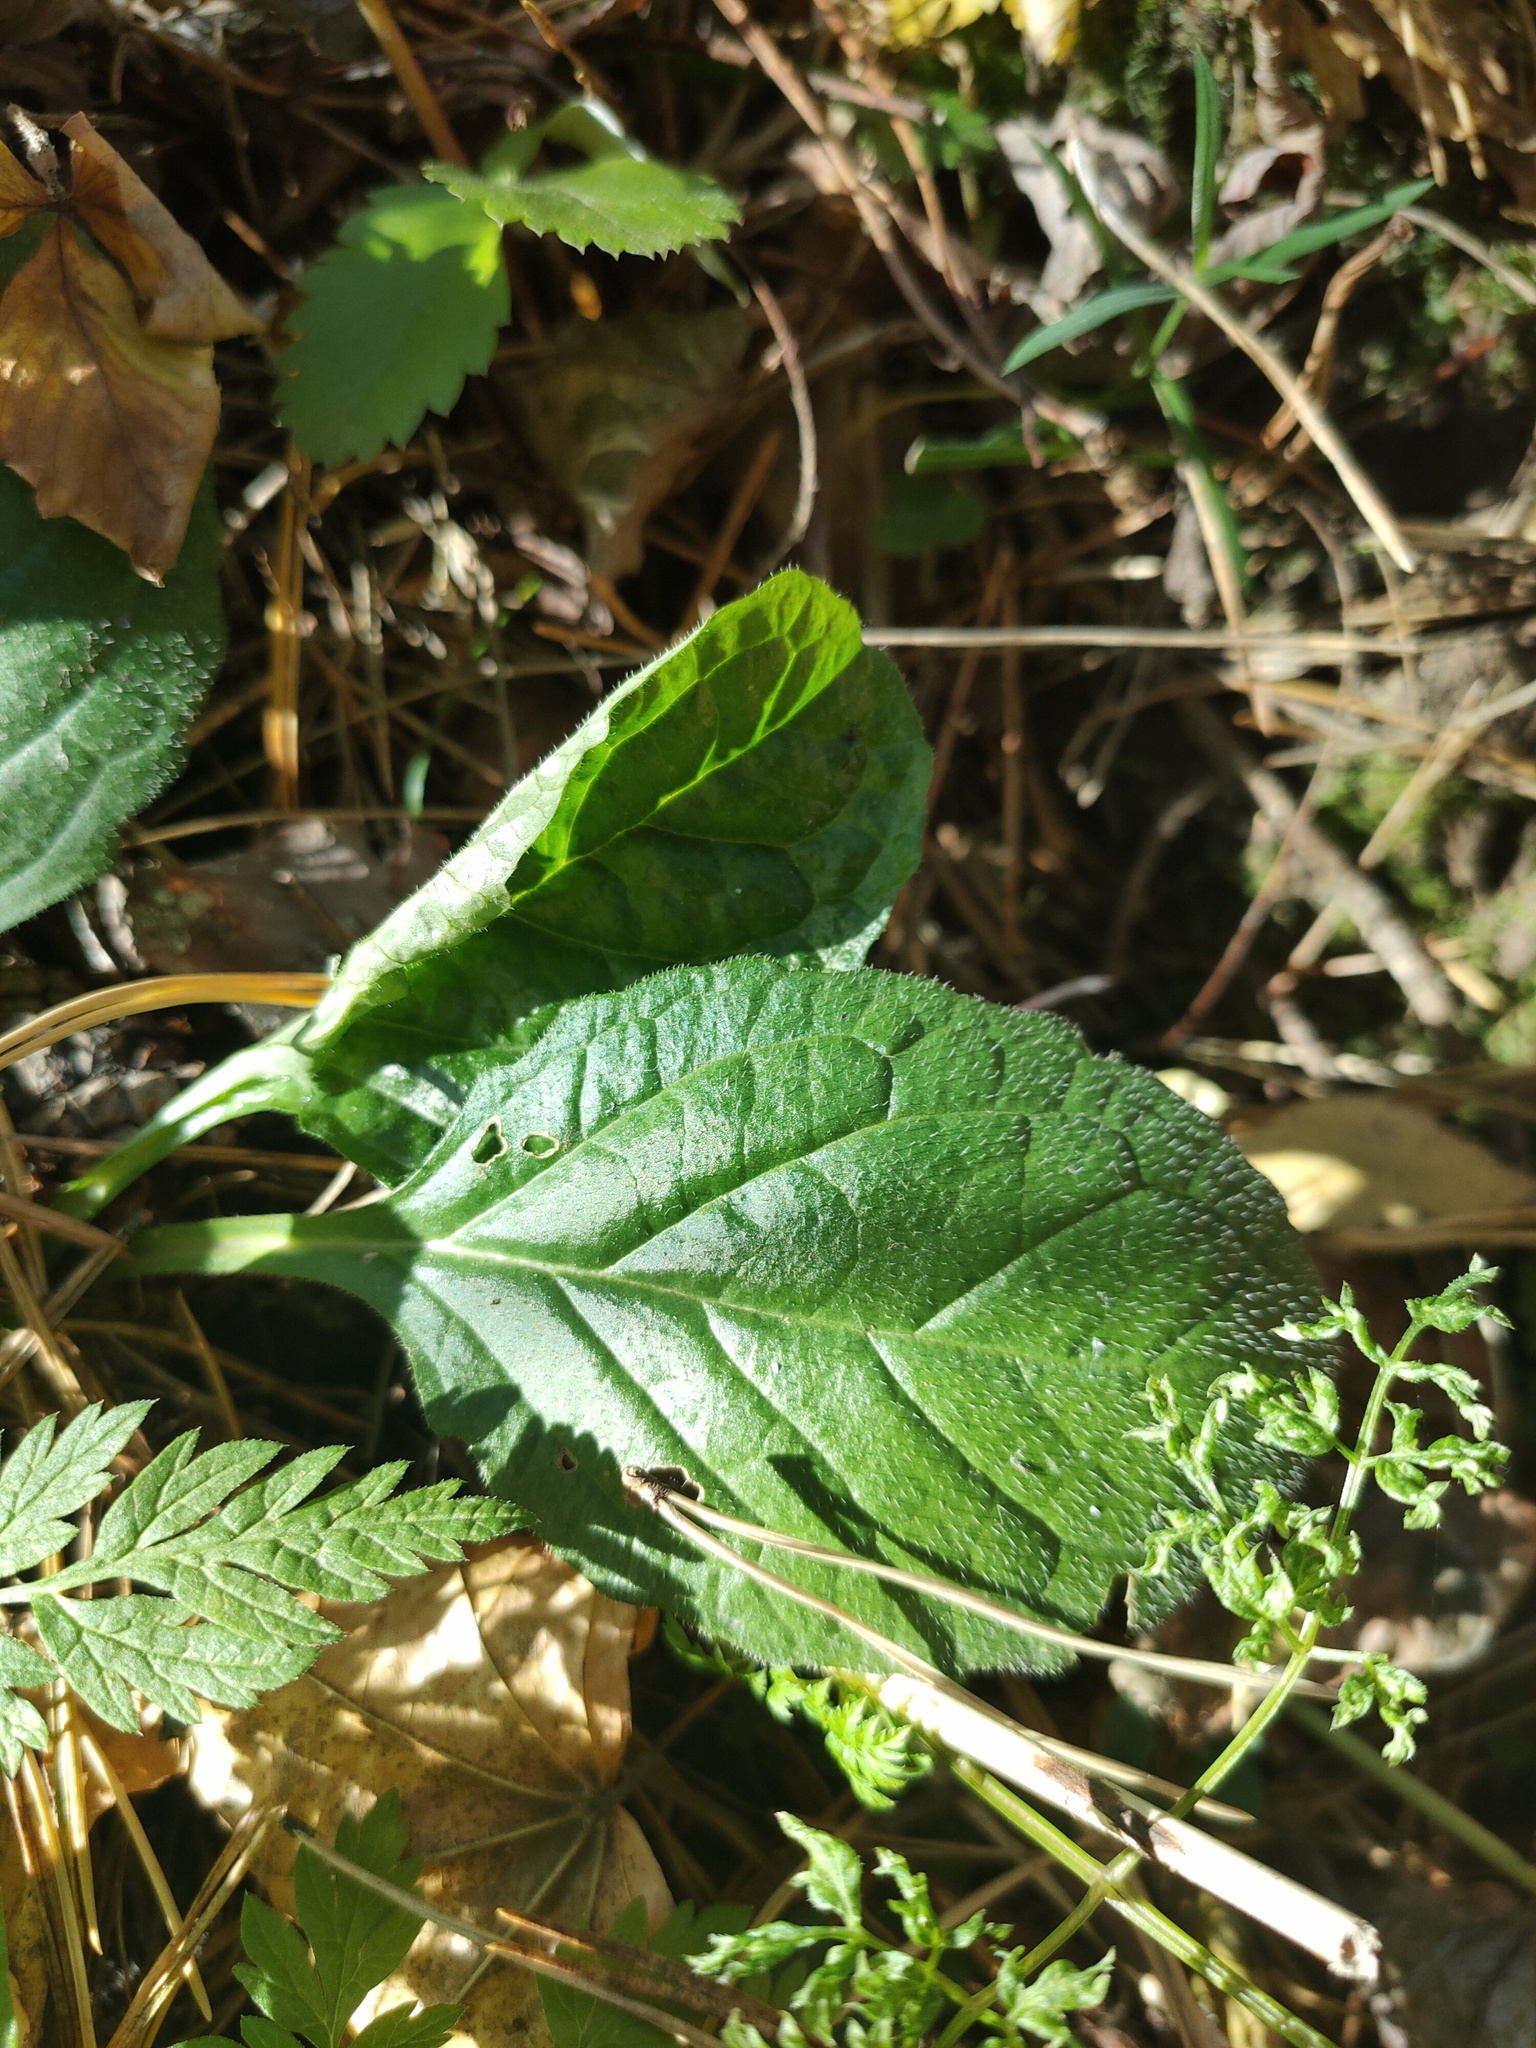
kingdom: Plantae
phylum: Tracheophyta
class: Magnoliopsida
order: Lamiales
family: Lamiaceae
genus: Ajuga
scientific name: Ajuga reptans
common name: Bugle
